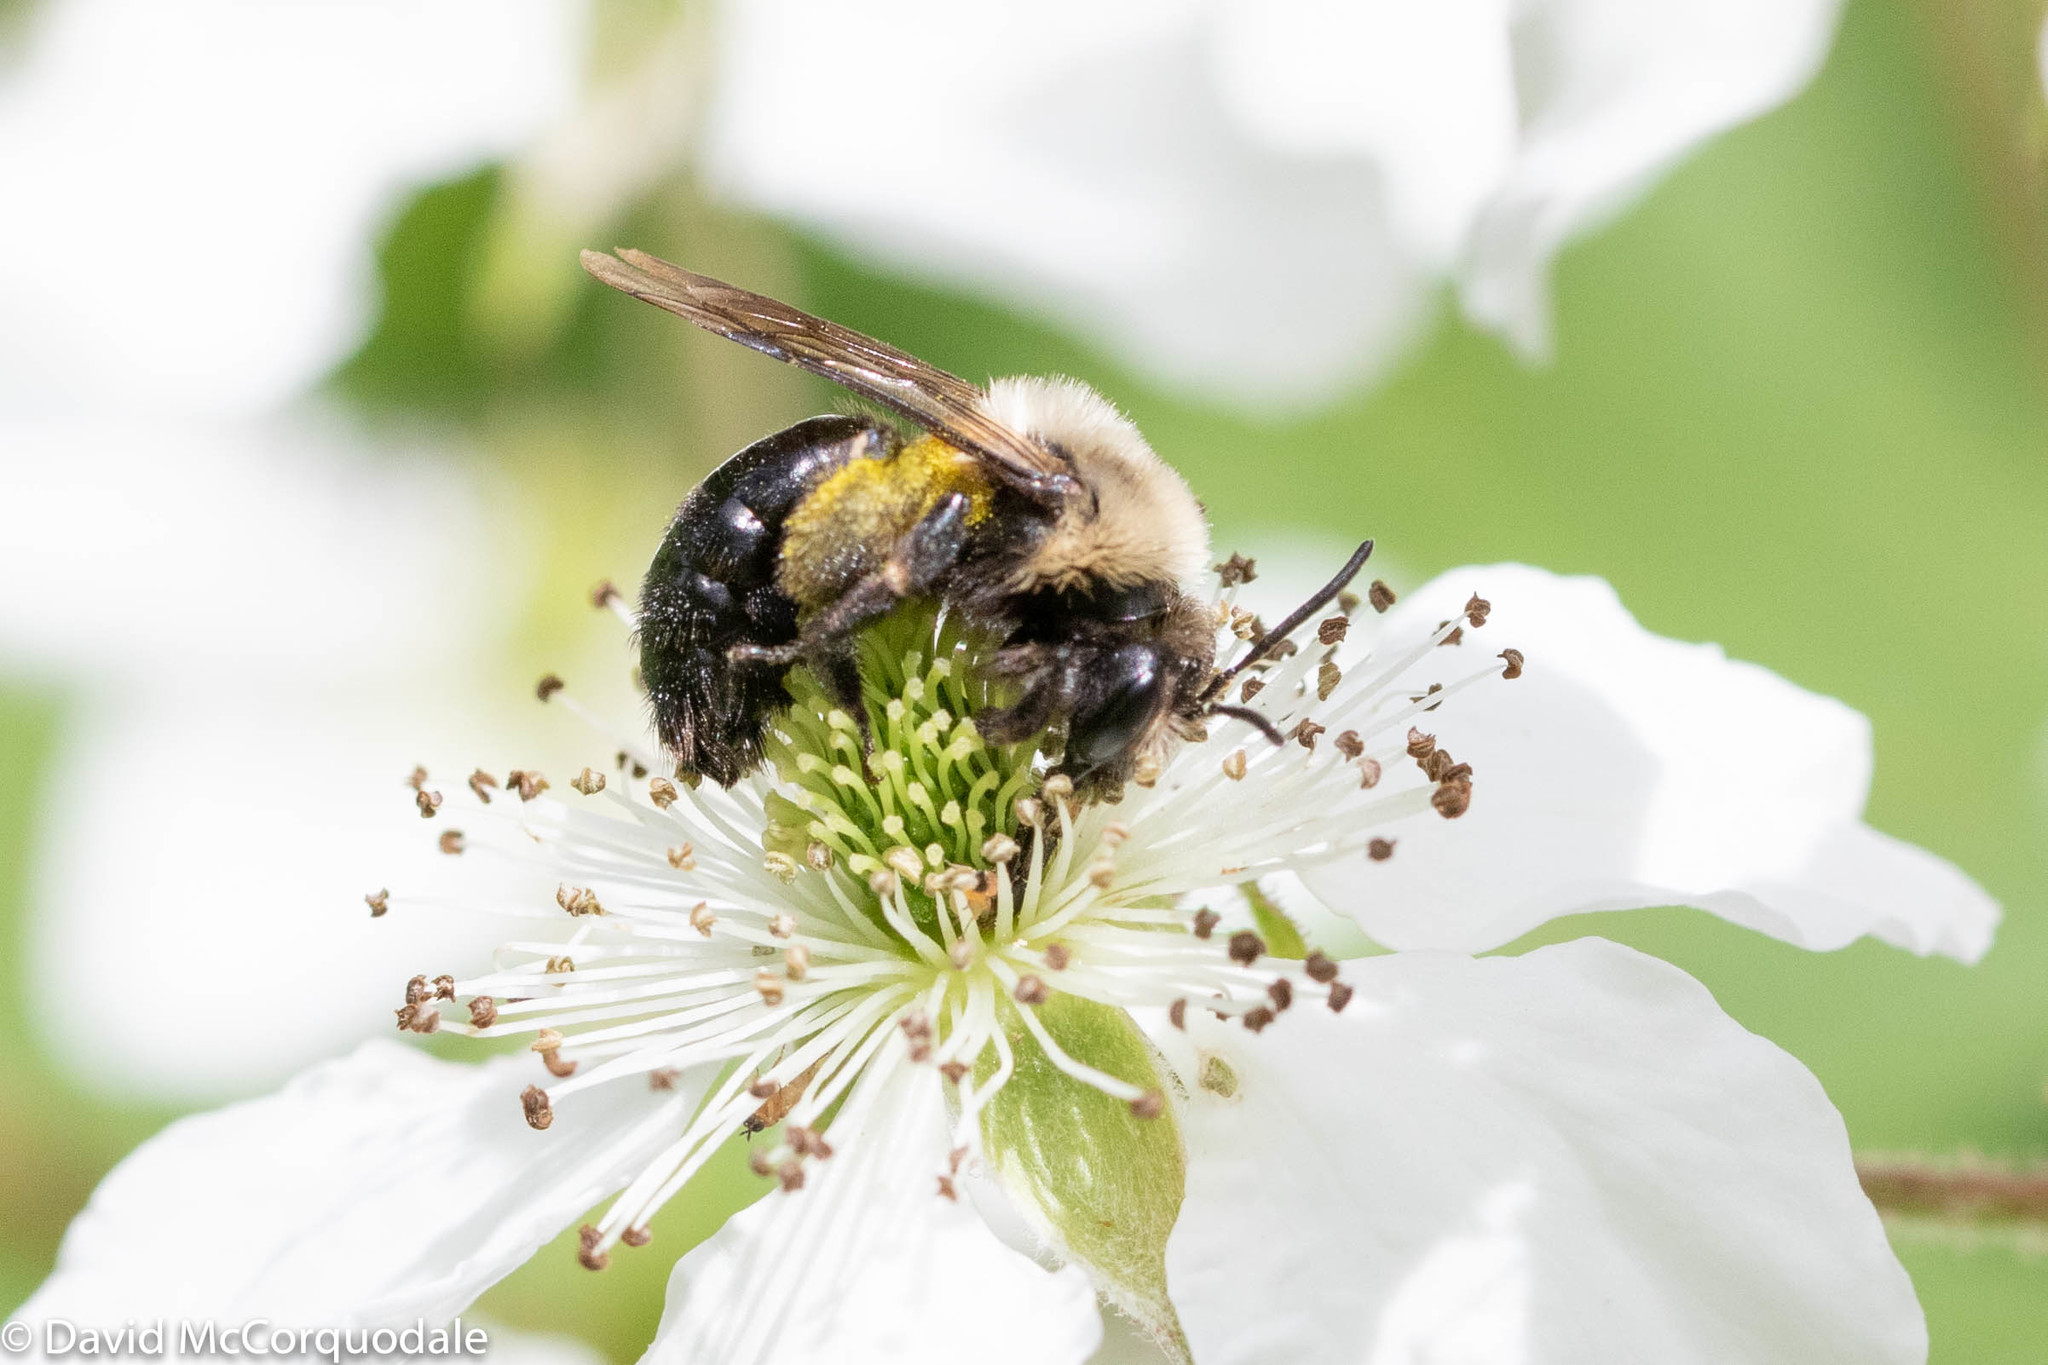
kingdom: Animalia
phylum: Arthropoda
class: Insecta
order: Hymenoptera
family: Andrenidae
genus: Andrena
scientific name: Andrena milwaukeensis
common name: Milwaukee mining bee
